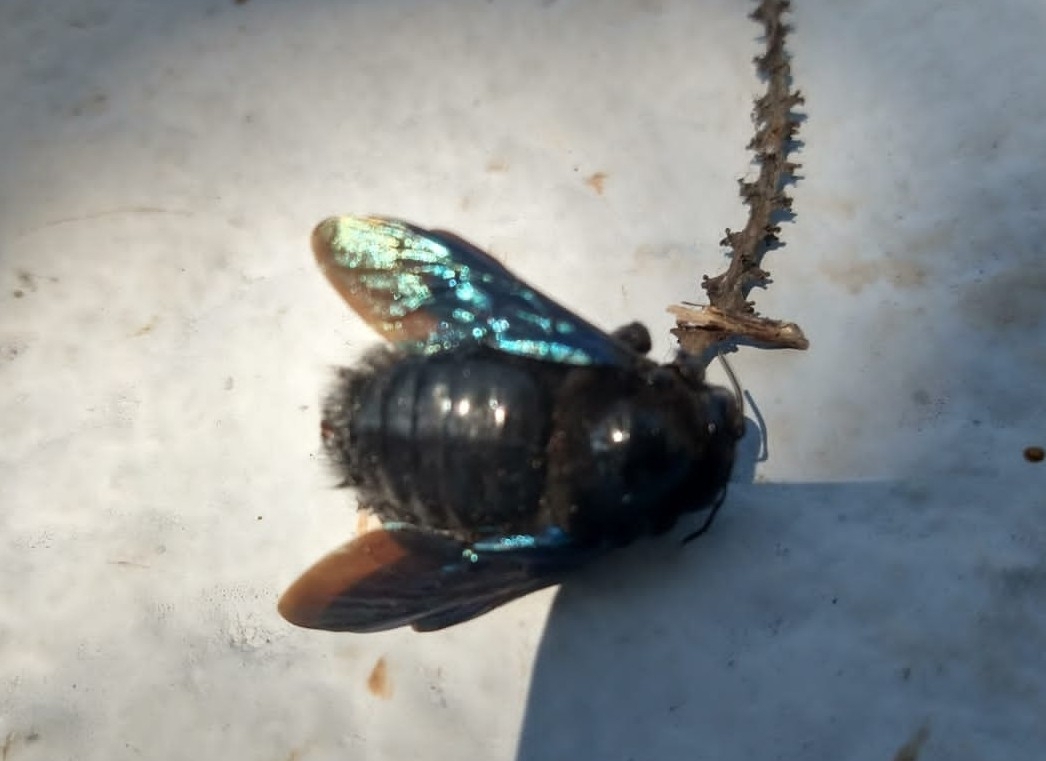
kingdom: Animalia
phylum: Arthropoda
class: Insecta
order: Hymenoptera
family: Apidae
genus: Xylocopa
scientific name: Xylocopa nautlana
